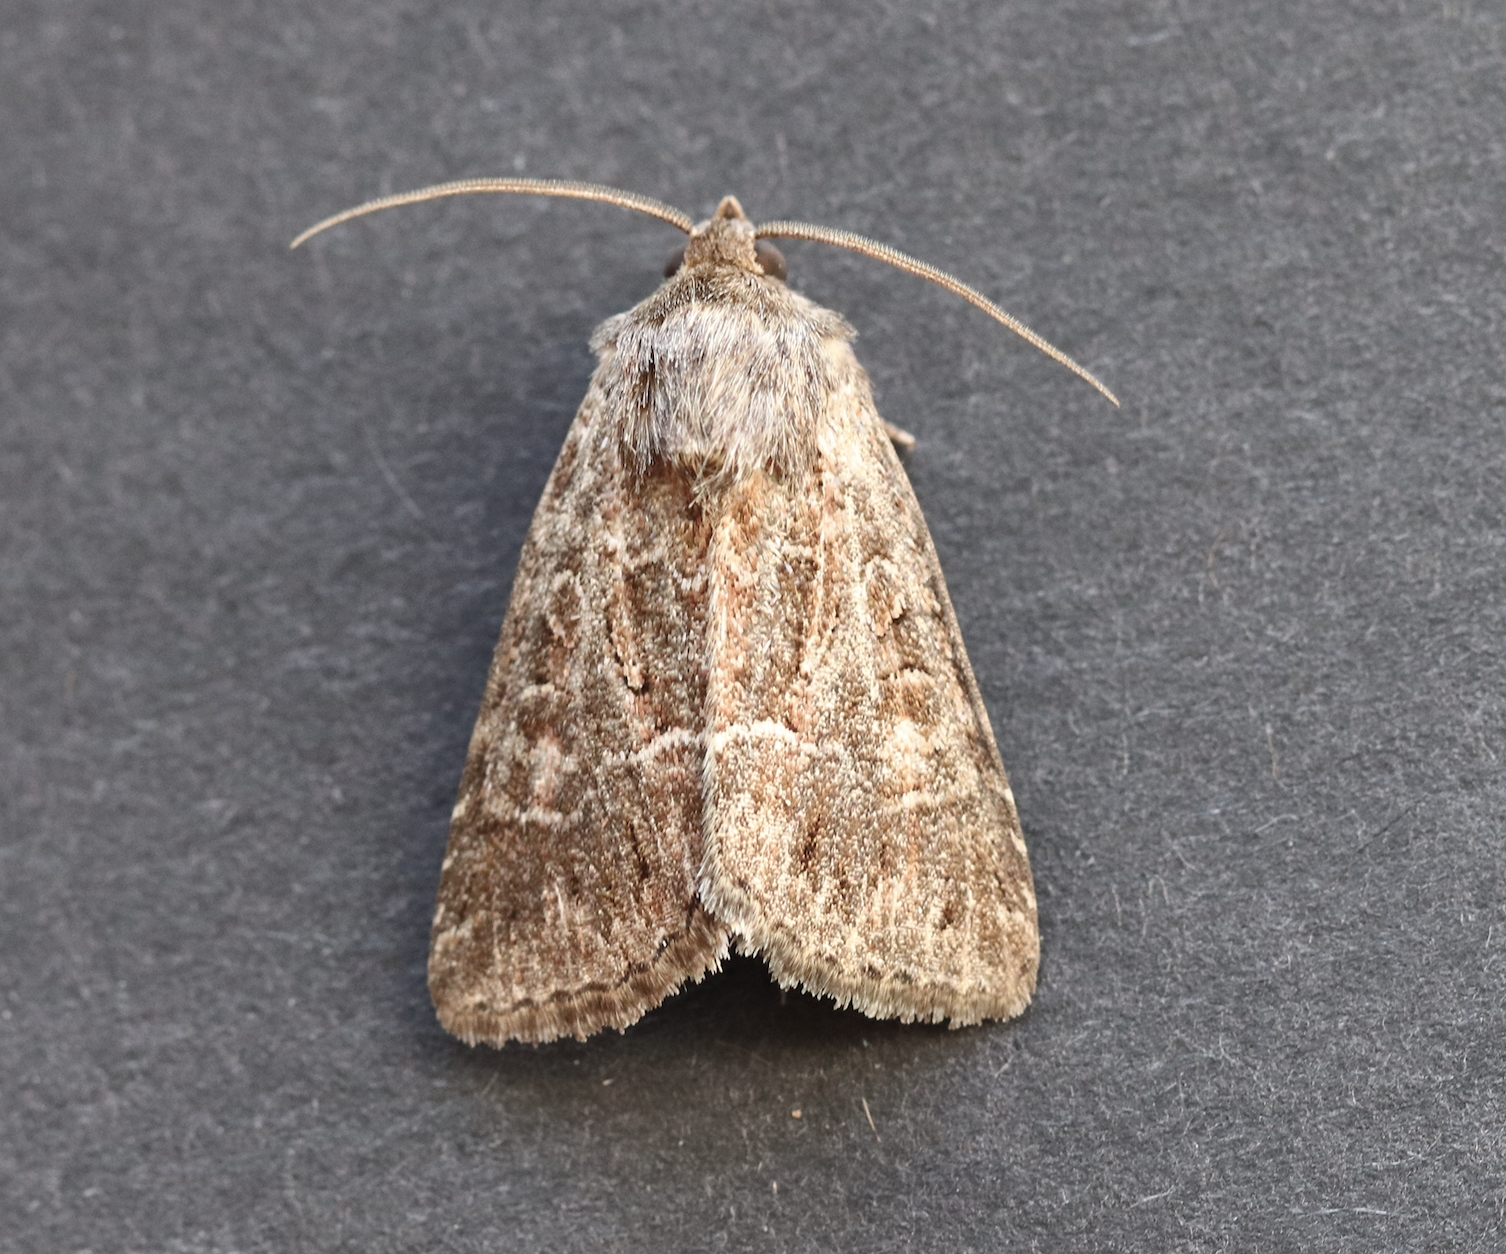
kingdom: Animalia
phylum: Arthropoda
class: Insecta
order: Lepidoptera
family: Noctuidae
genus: Thalpophila
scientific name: Thalpophila matura
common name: Straw underwing
